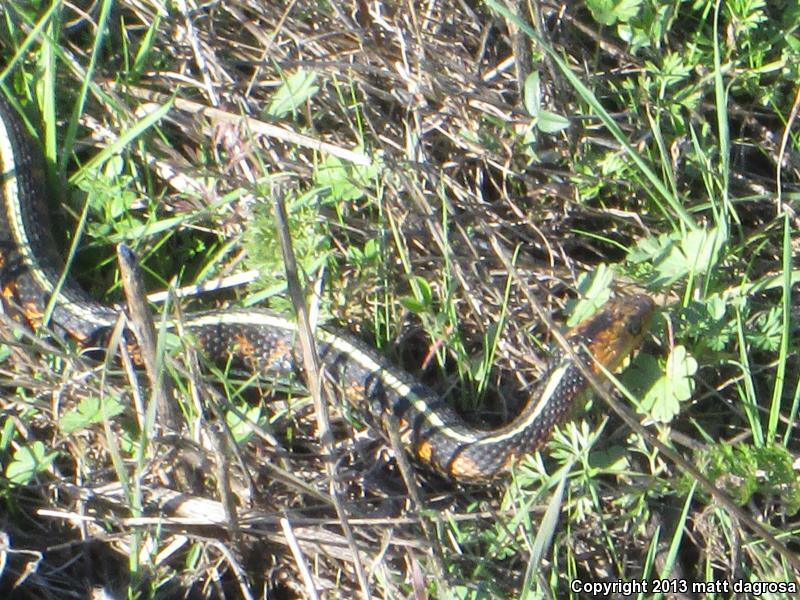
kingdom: Animalia
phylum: Chordata
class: Squamata
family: Colubridae
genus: Thamnophis
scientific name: Thamnophis sirtalis
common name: Common garter snake
